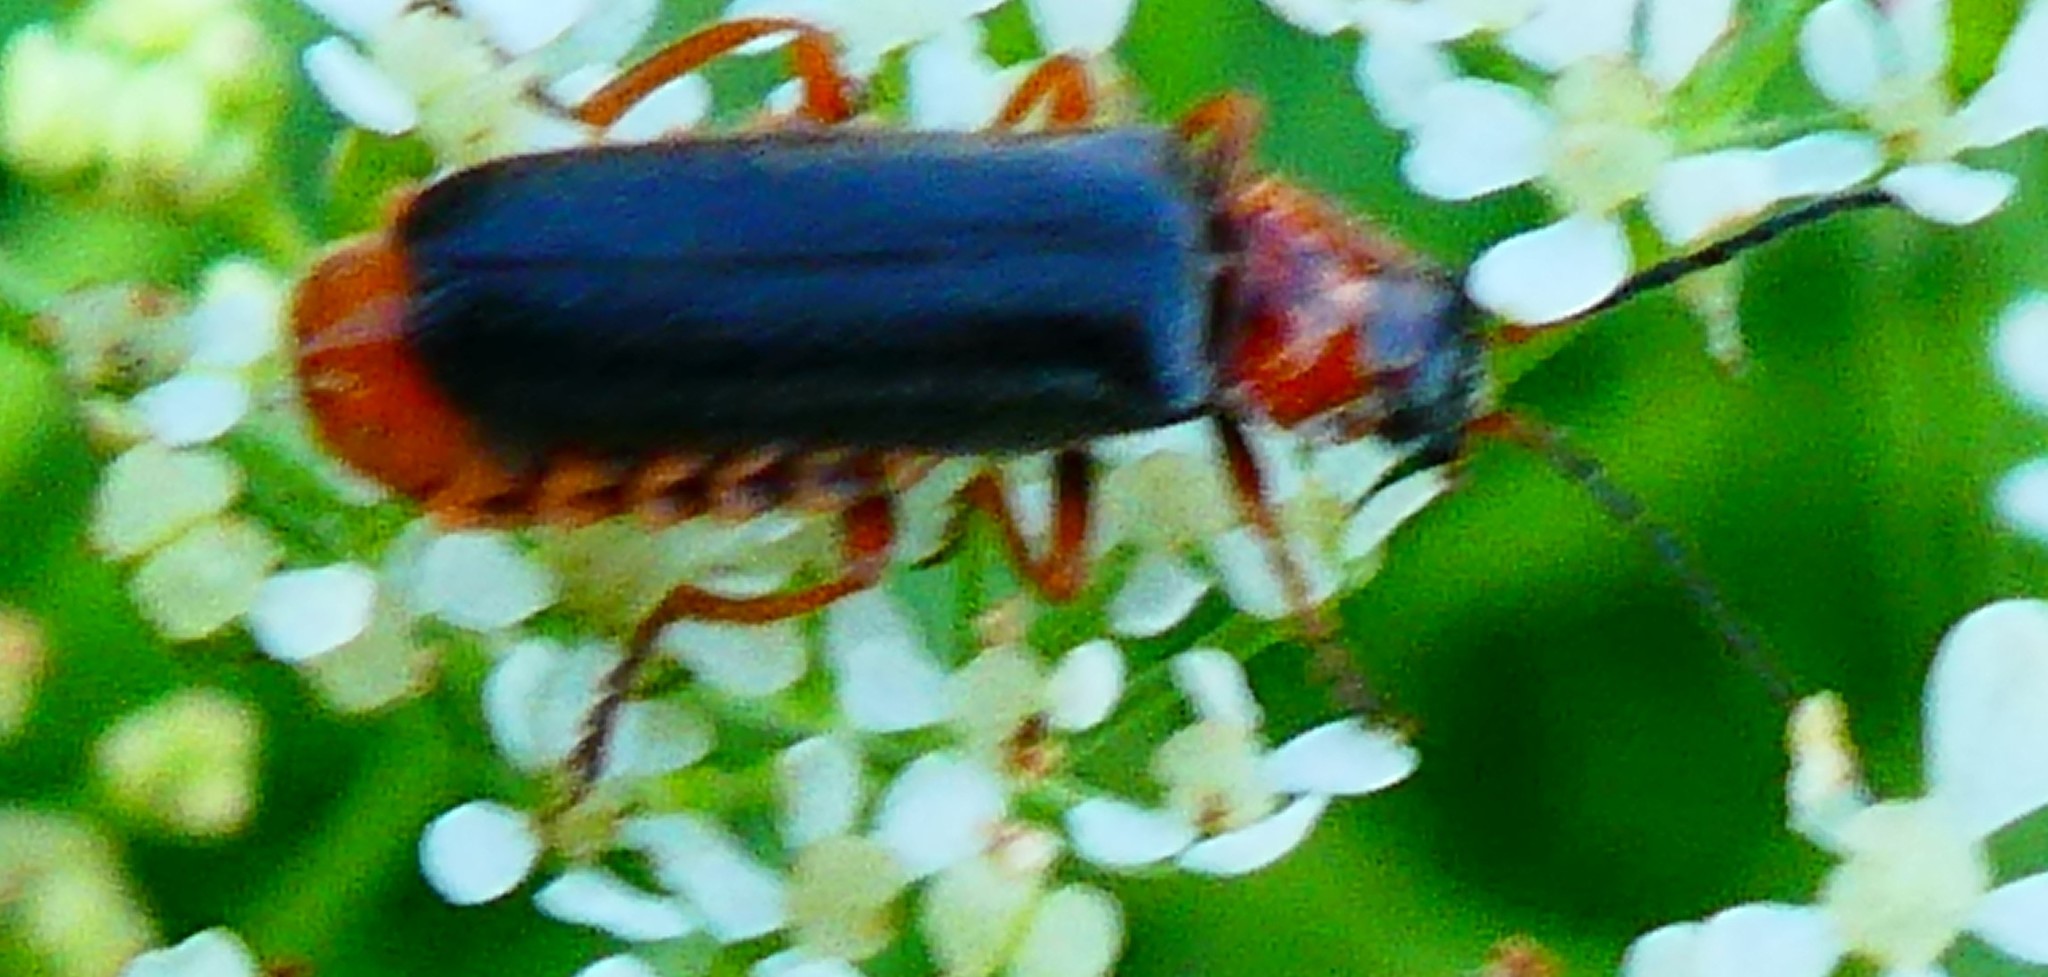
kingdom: Animalia
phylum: Arthropoda
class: Insecta
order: Coleoptera
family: Cantharidae
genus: Cantharis
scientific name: Cantharis flavilabris
